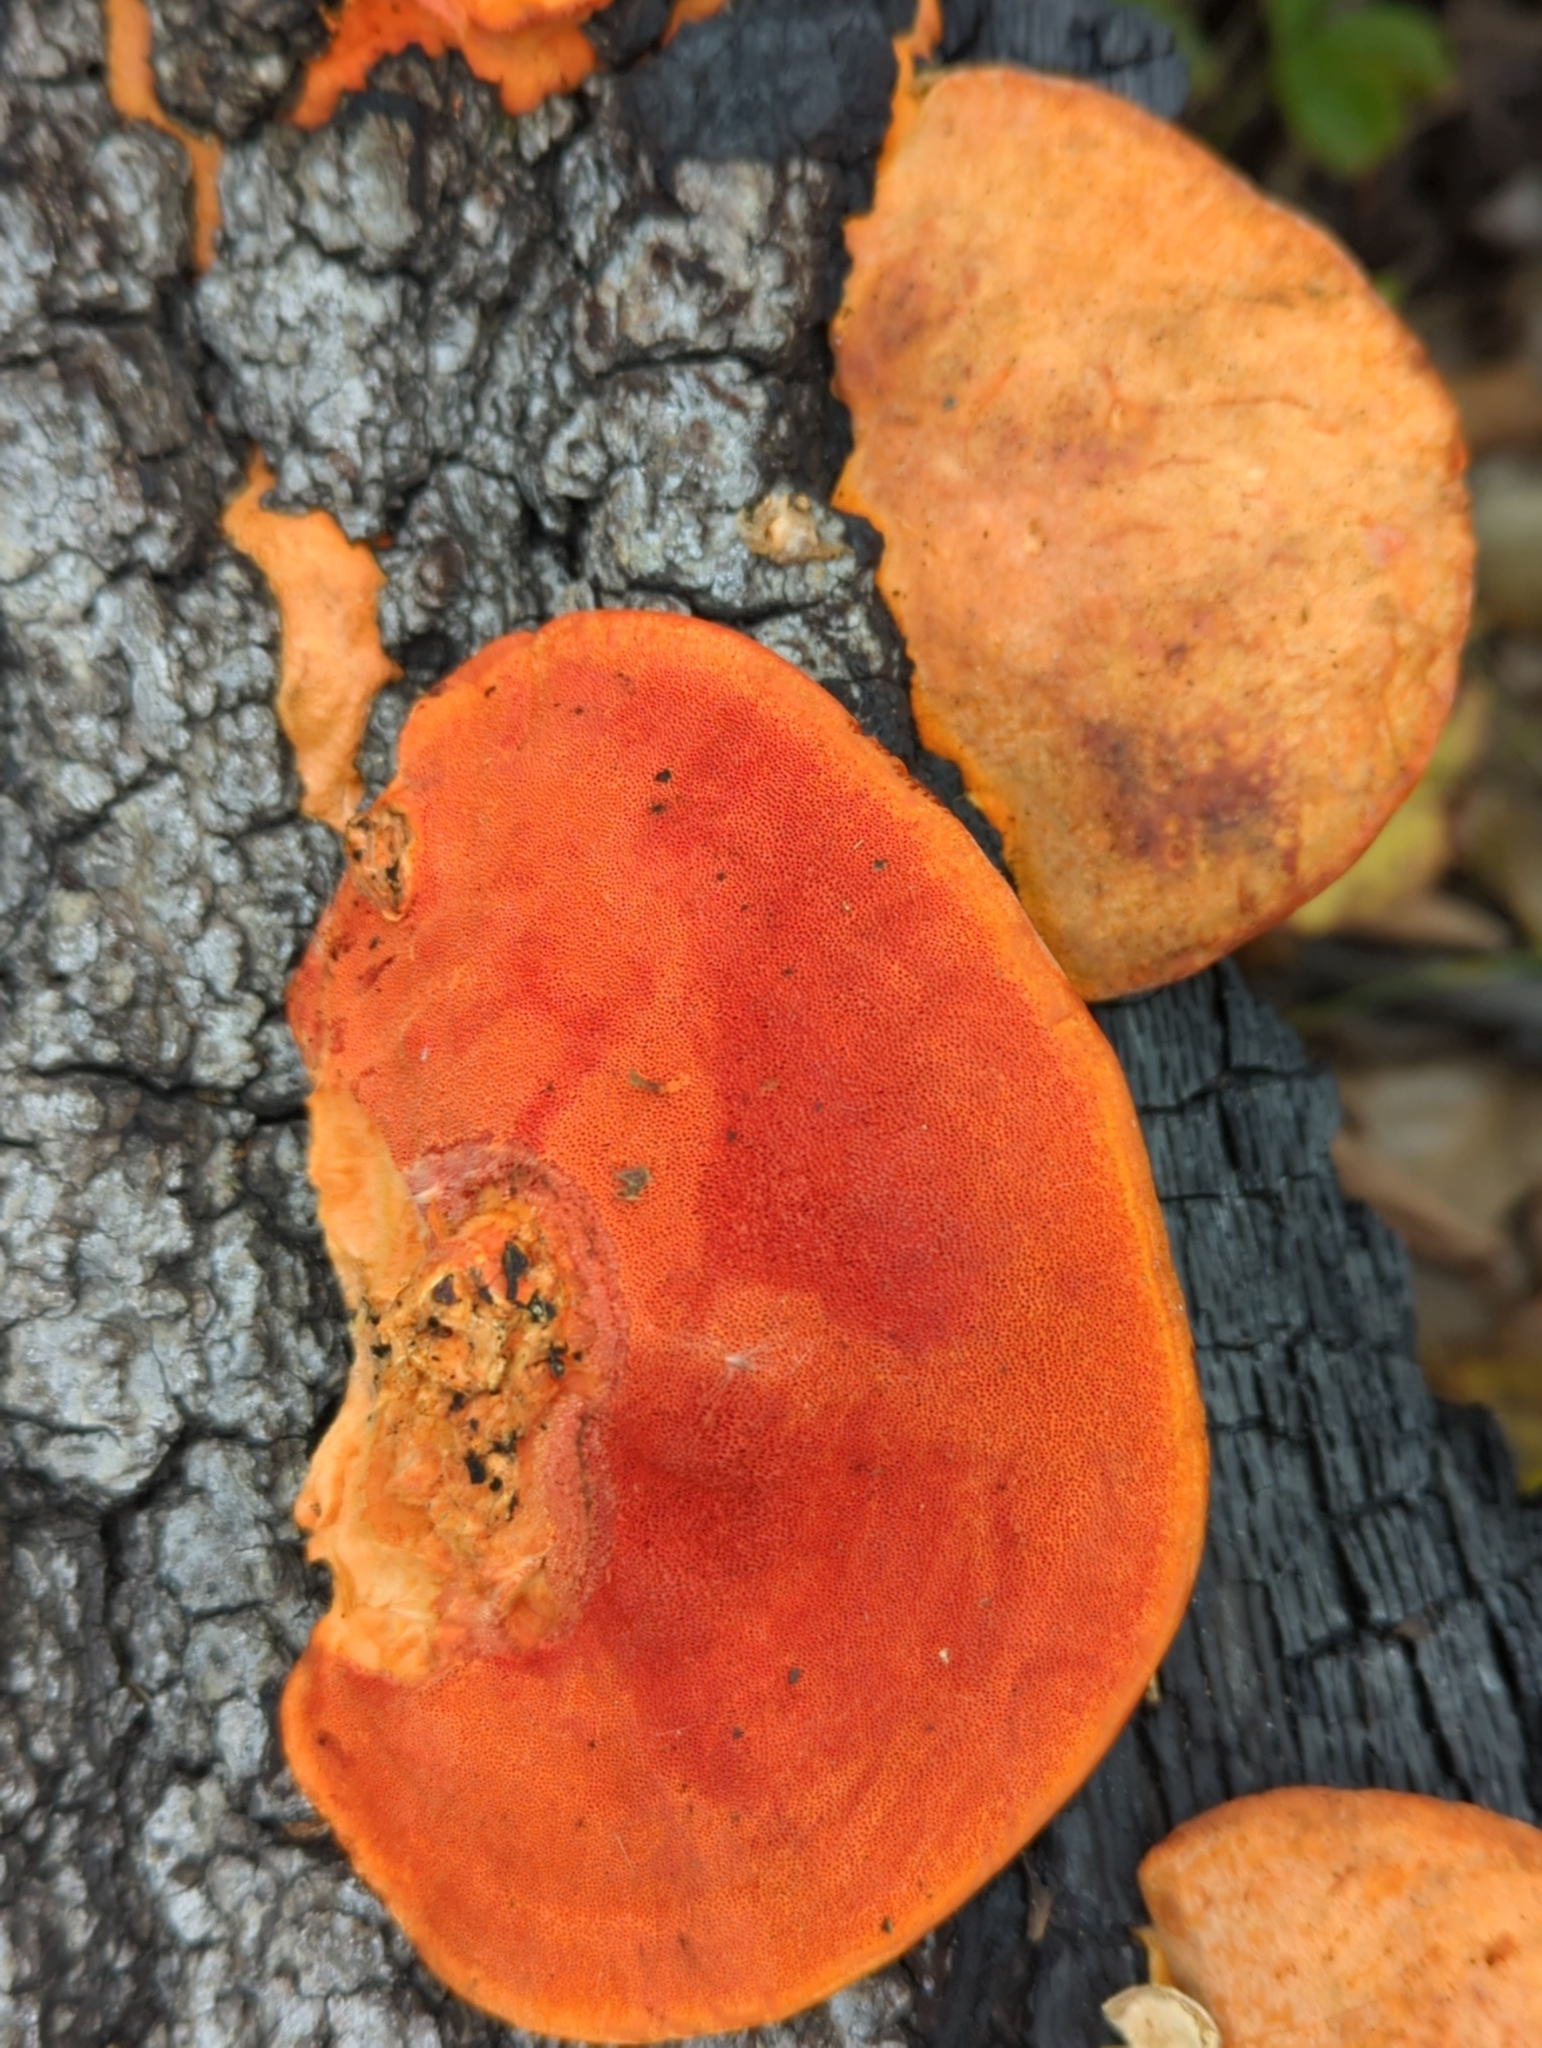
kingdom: Fungi
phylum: Basidiomycota
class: Agaricomycetes
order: Polyporales
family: Polyporaceae
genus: Trametes
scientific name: Trametes cinnabarina
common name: Northern cinnabar polypore
